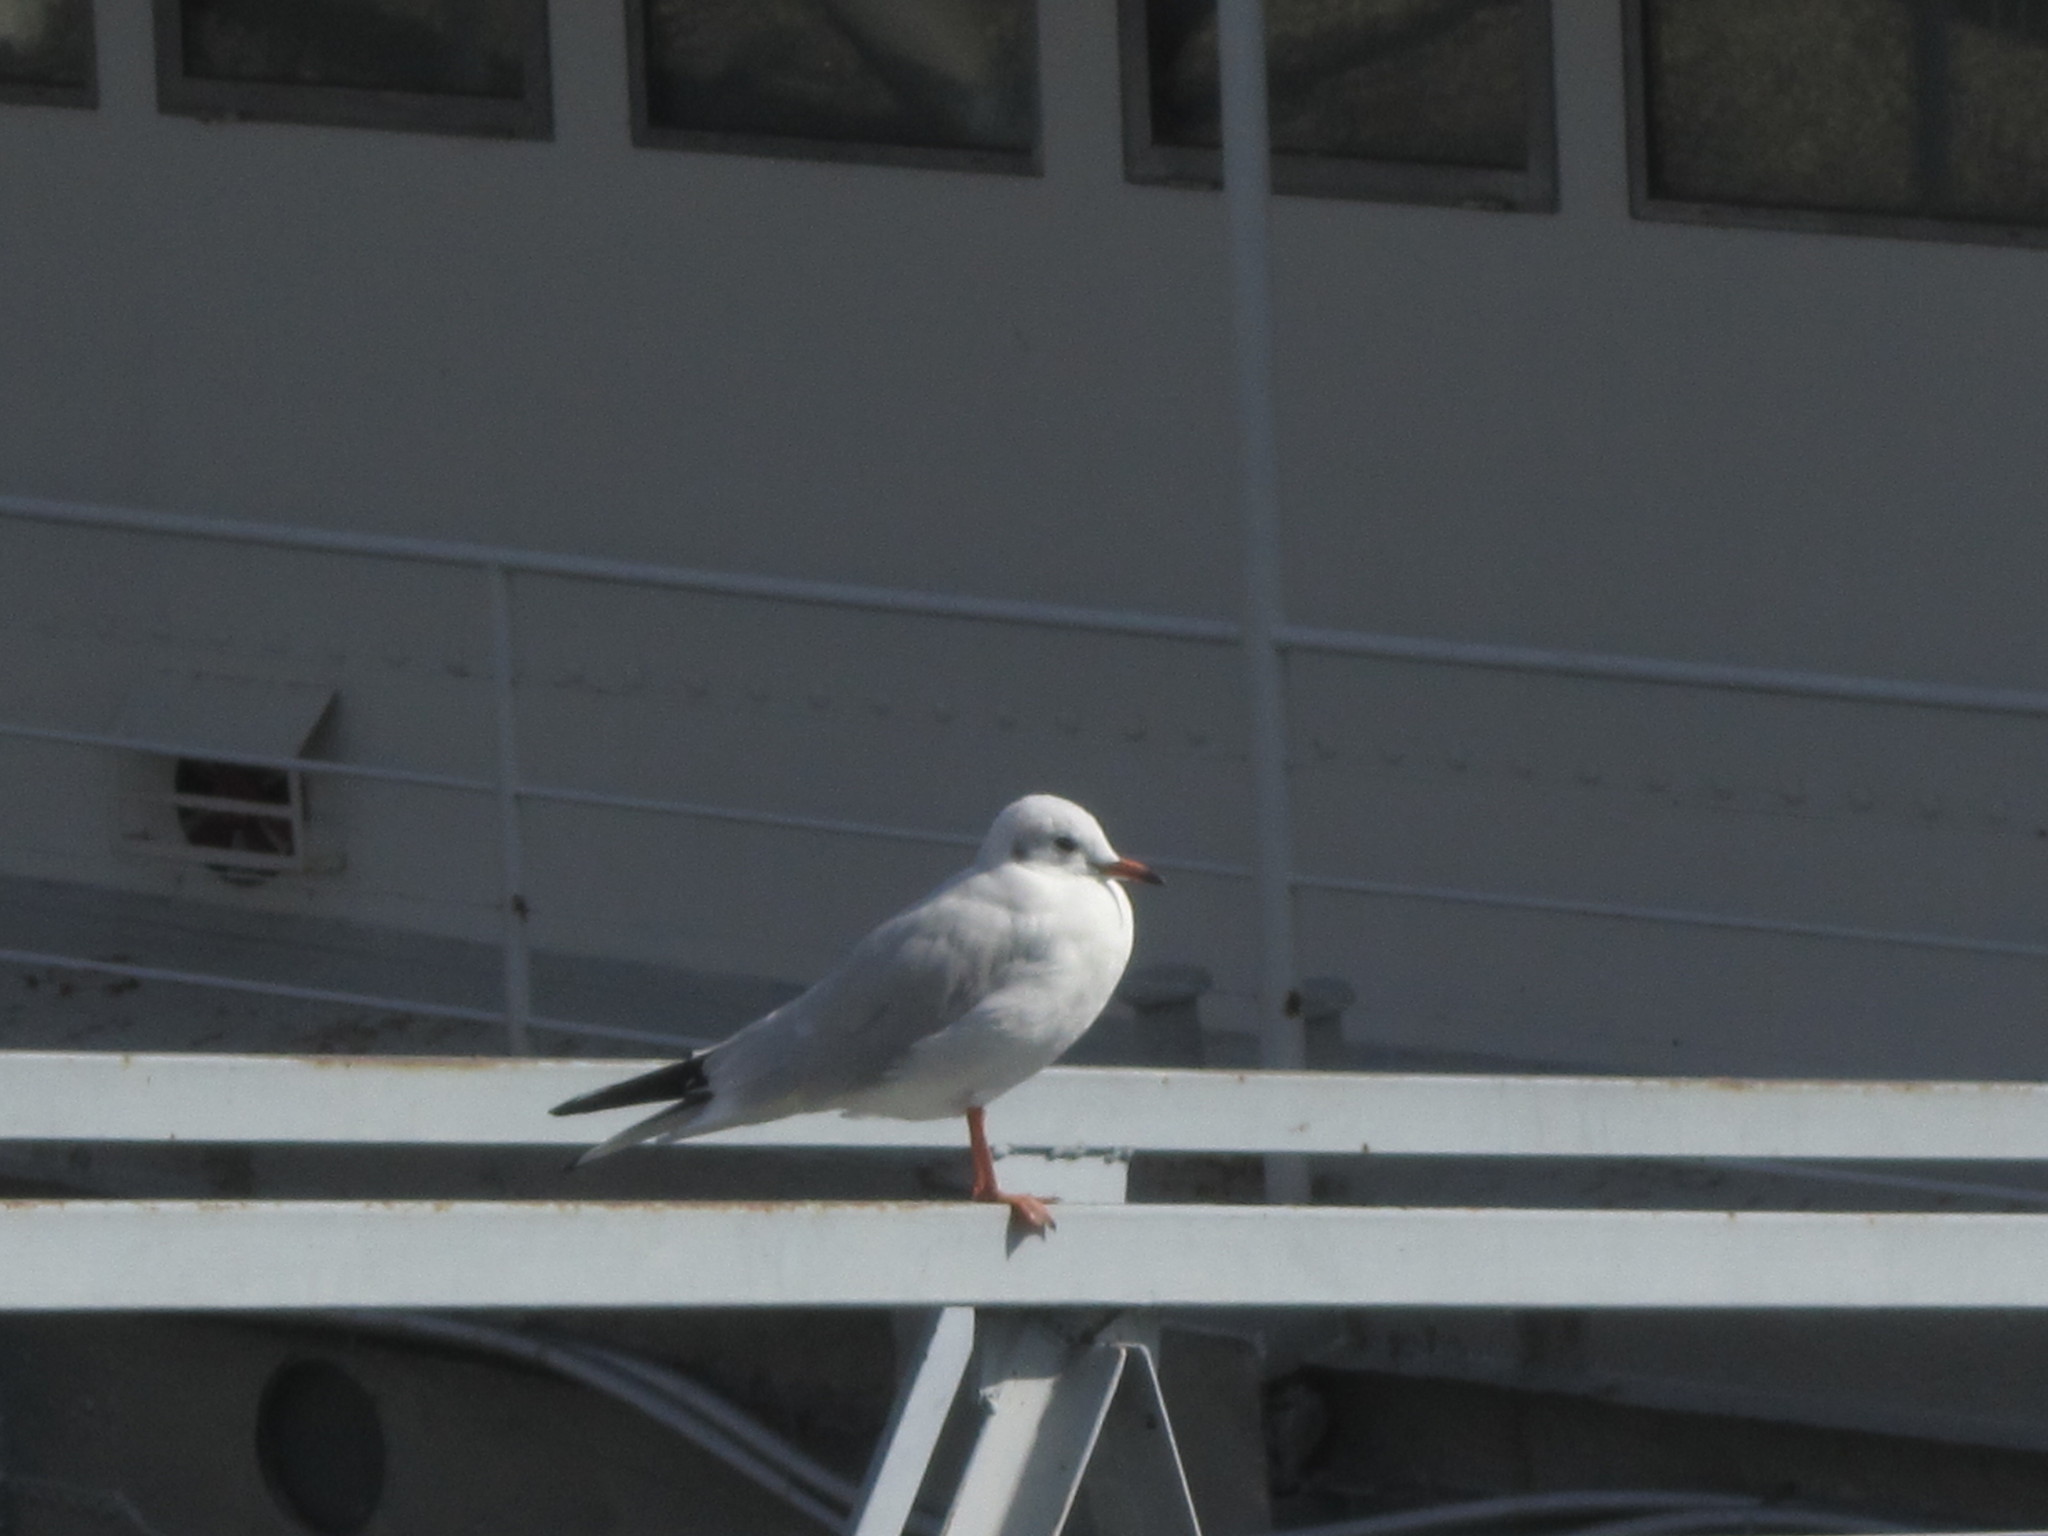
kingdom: Animalia
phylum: Chordata
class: Aves
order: Charadriiformes
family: Laridae
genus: Chroicocephalus
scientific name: Chroicocephalus ridibundus
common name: Black-headed gull
